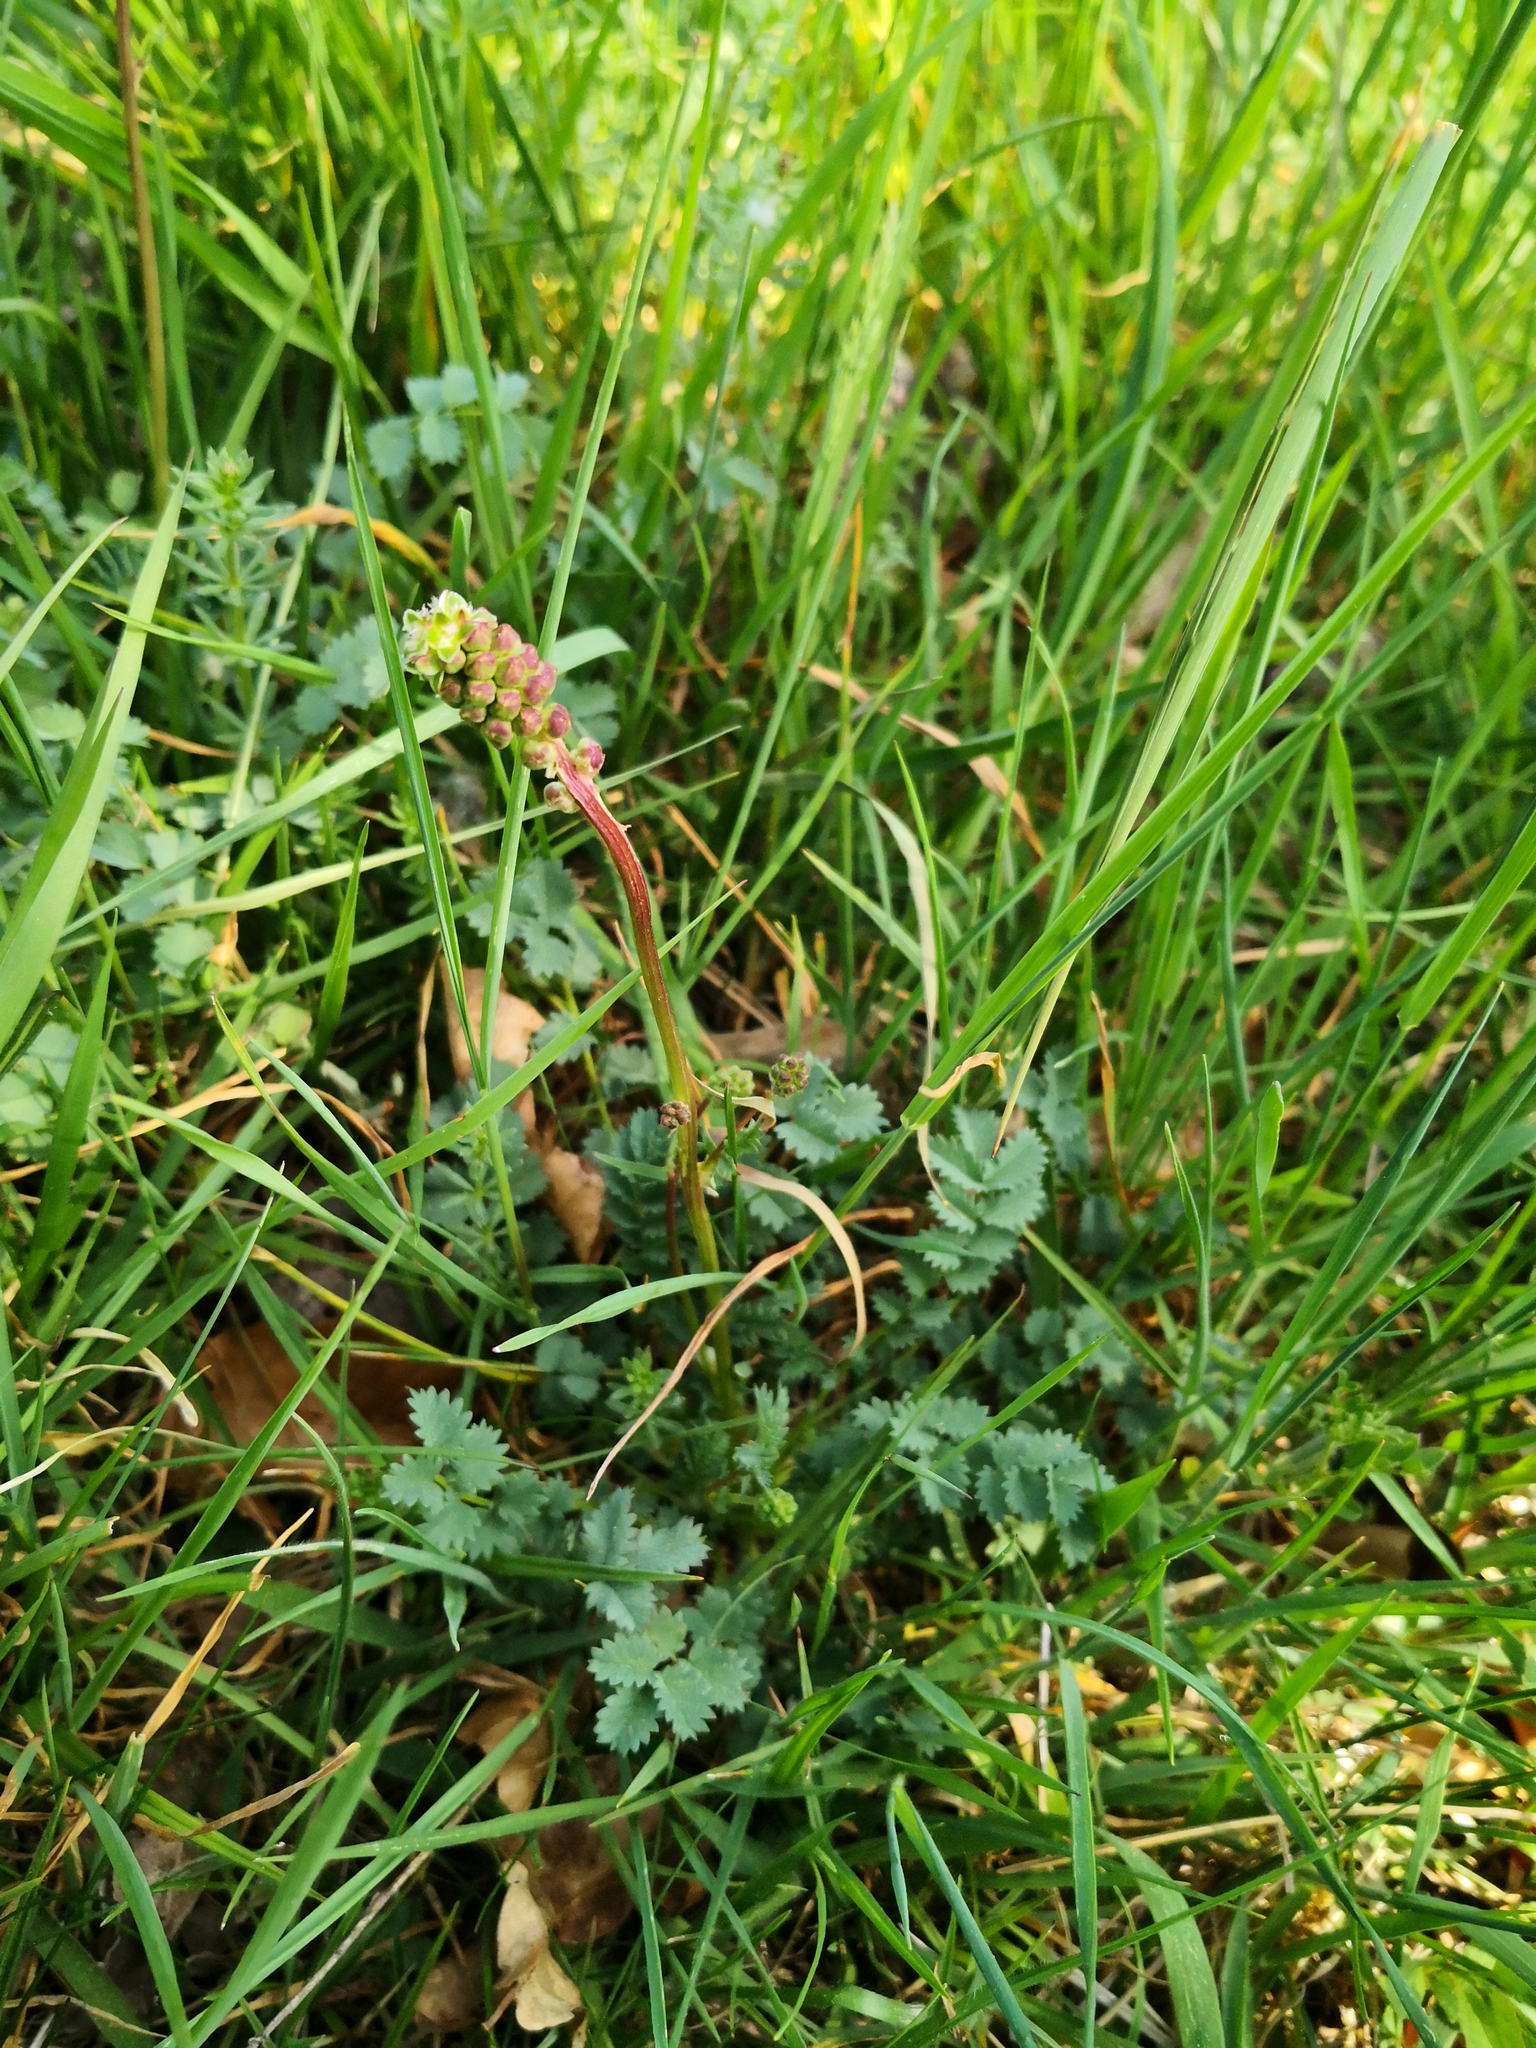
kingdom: Plantae
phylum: Tracheophyta
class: Magnoliopsida
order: Rosales
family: Rosaceae
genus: Poterium
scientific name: Poterium sanguisorba
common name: Salad burnet
